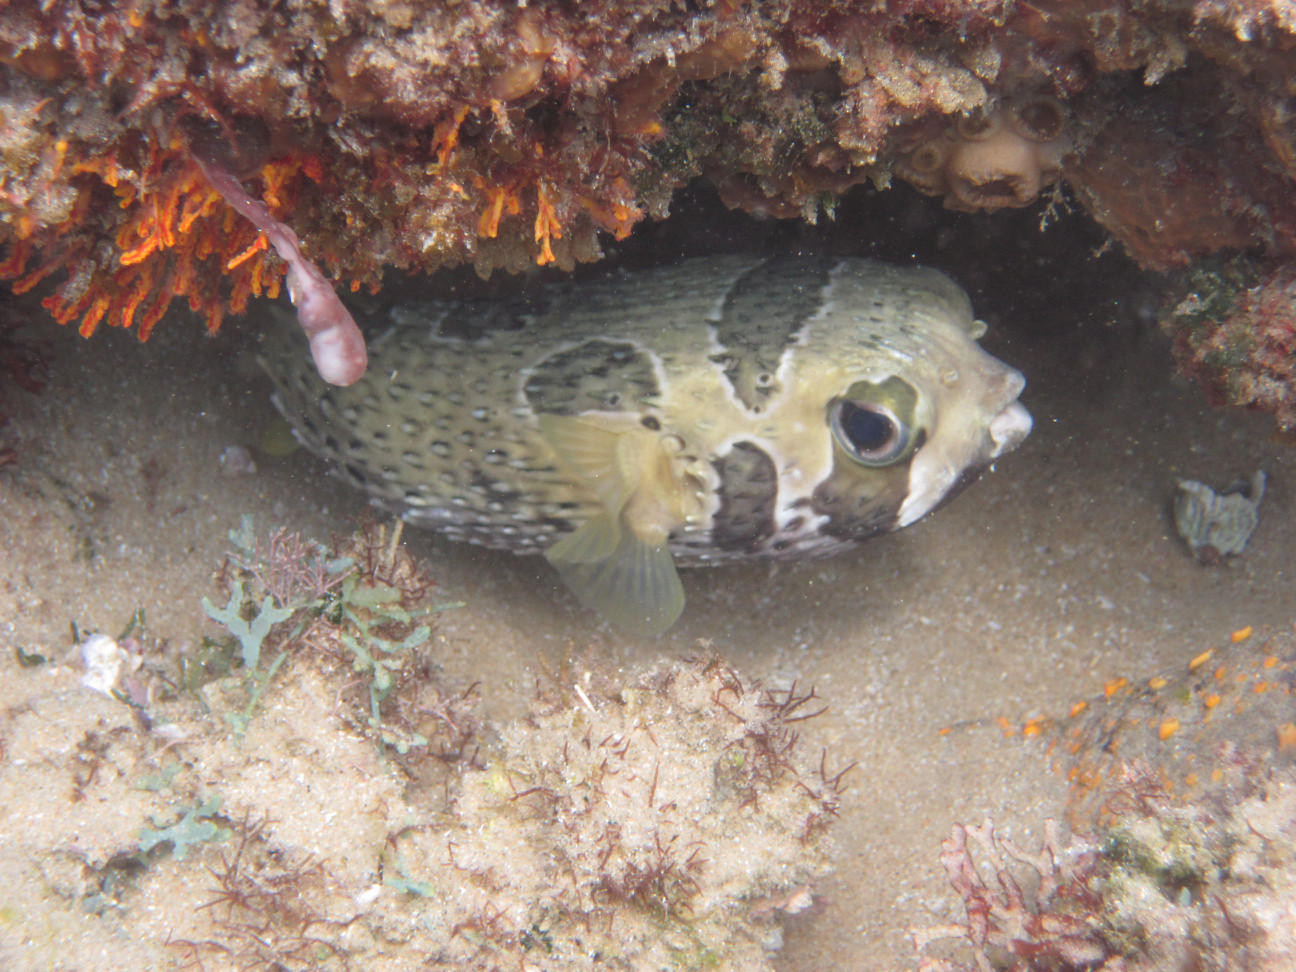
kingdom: Animalia
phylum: Chordata
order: Tetraodontiformes
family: Diodontidae
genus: Diodon
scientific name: Diodon liturosus
